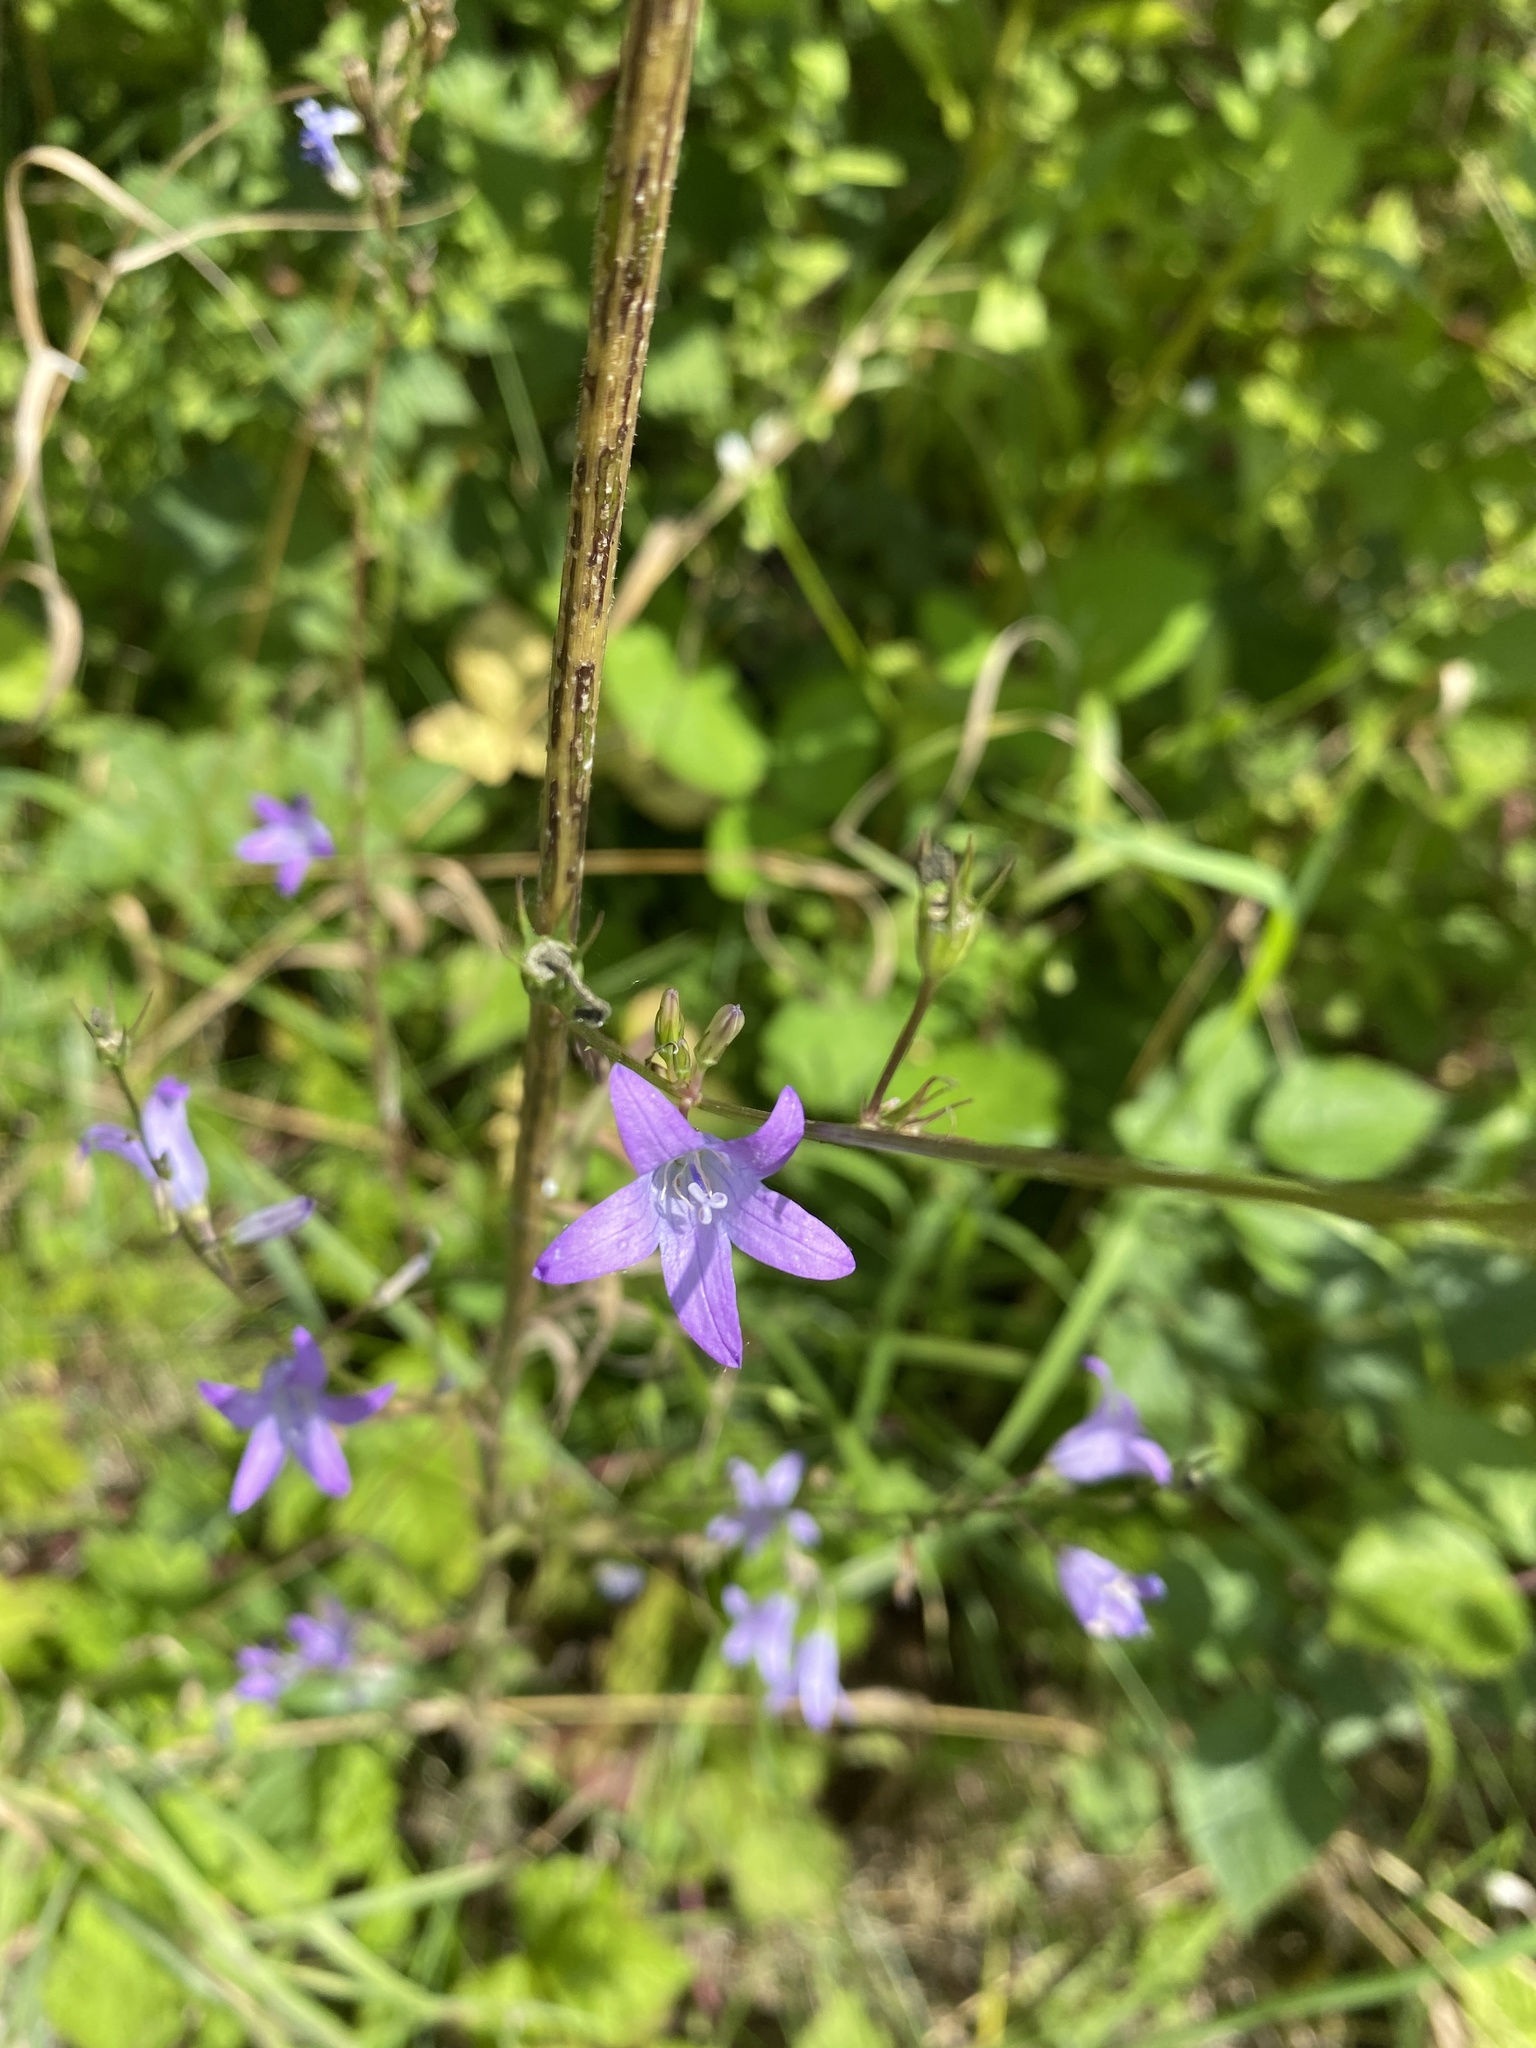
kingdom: Plantae
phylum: Tracheophyta
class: Magnoliopsida
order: Asterales
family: Campanulaceae
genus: Campanula
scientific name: Campanula rapunculus
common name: Rampion bellflower
